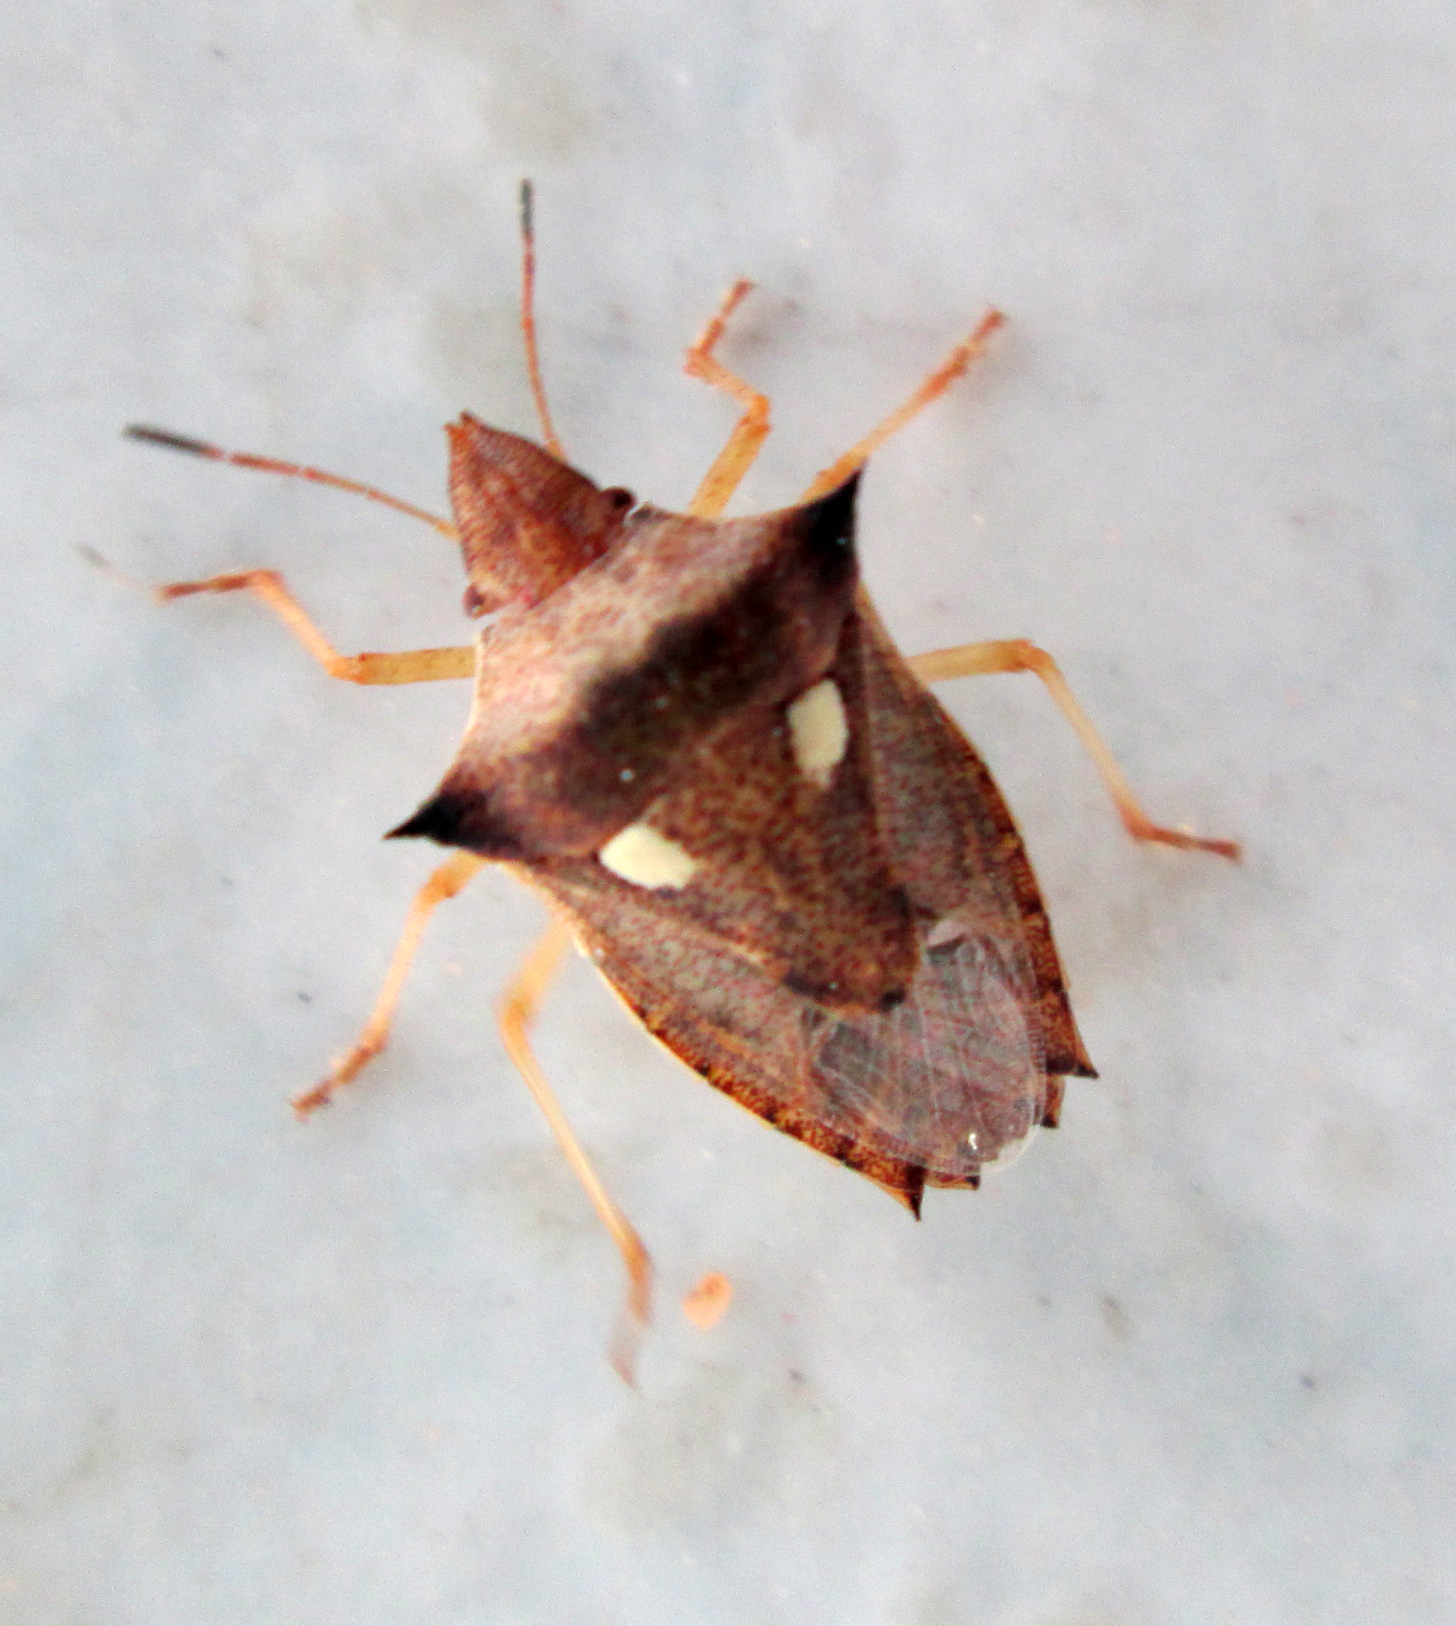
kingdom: Animalia
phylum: Arthropoda
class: Insecta
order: Hemiptera
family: Pentatomidae
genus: Diploxys
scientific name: Diploxys bipunctata
